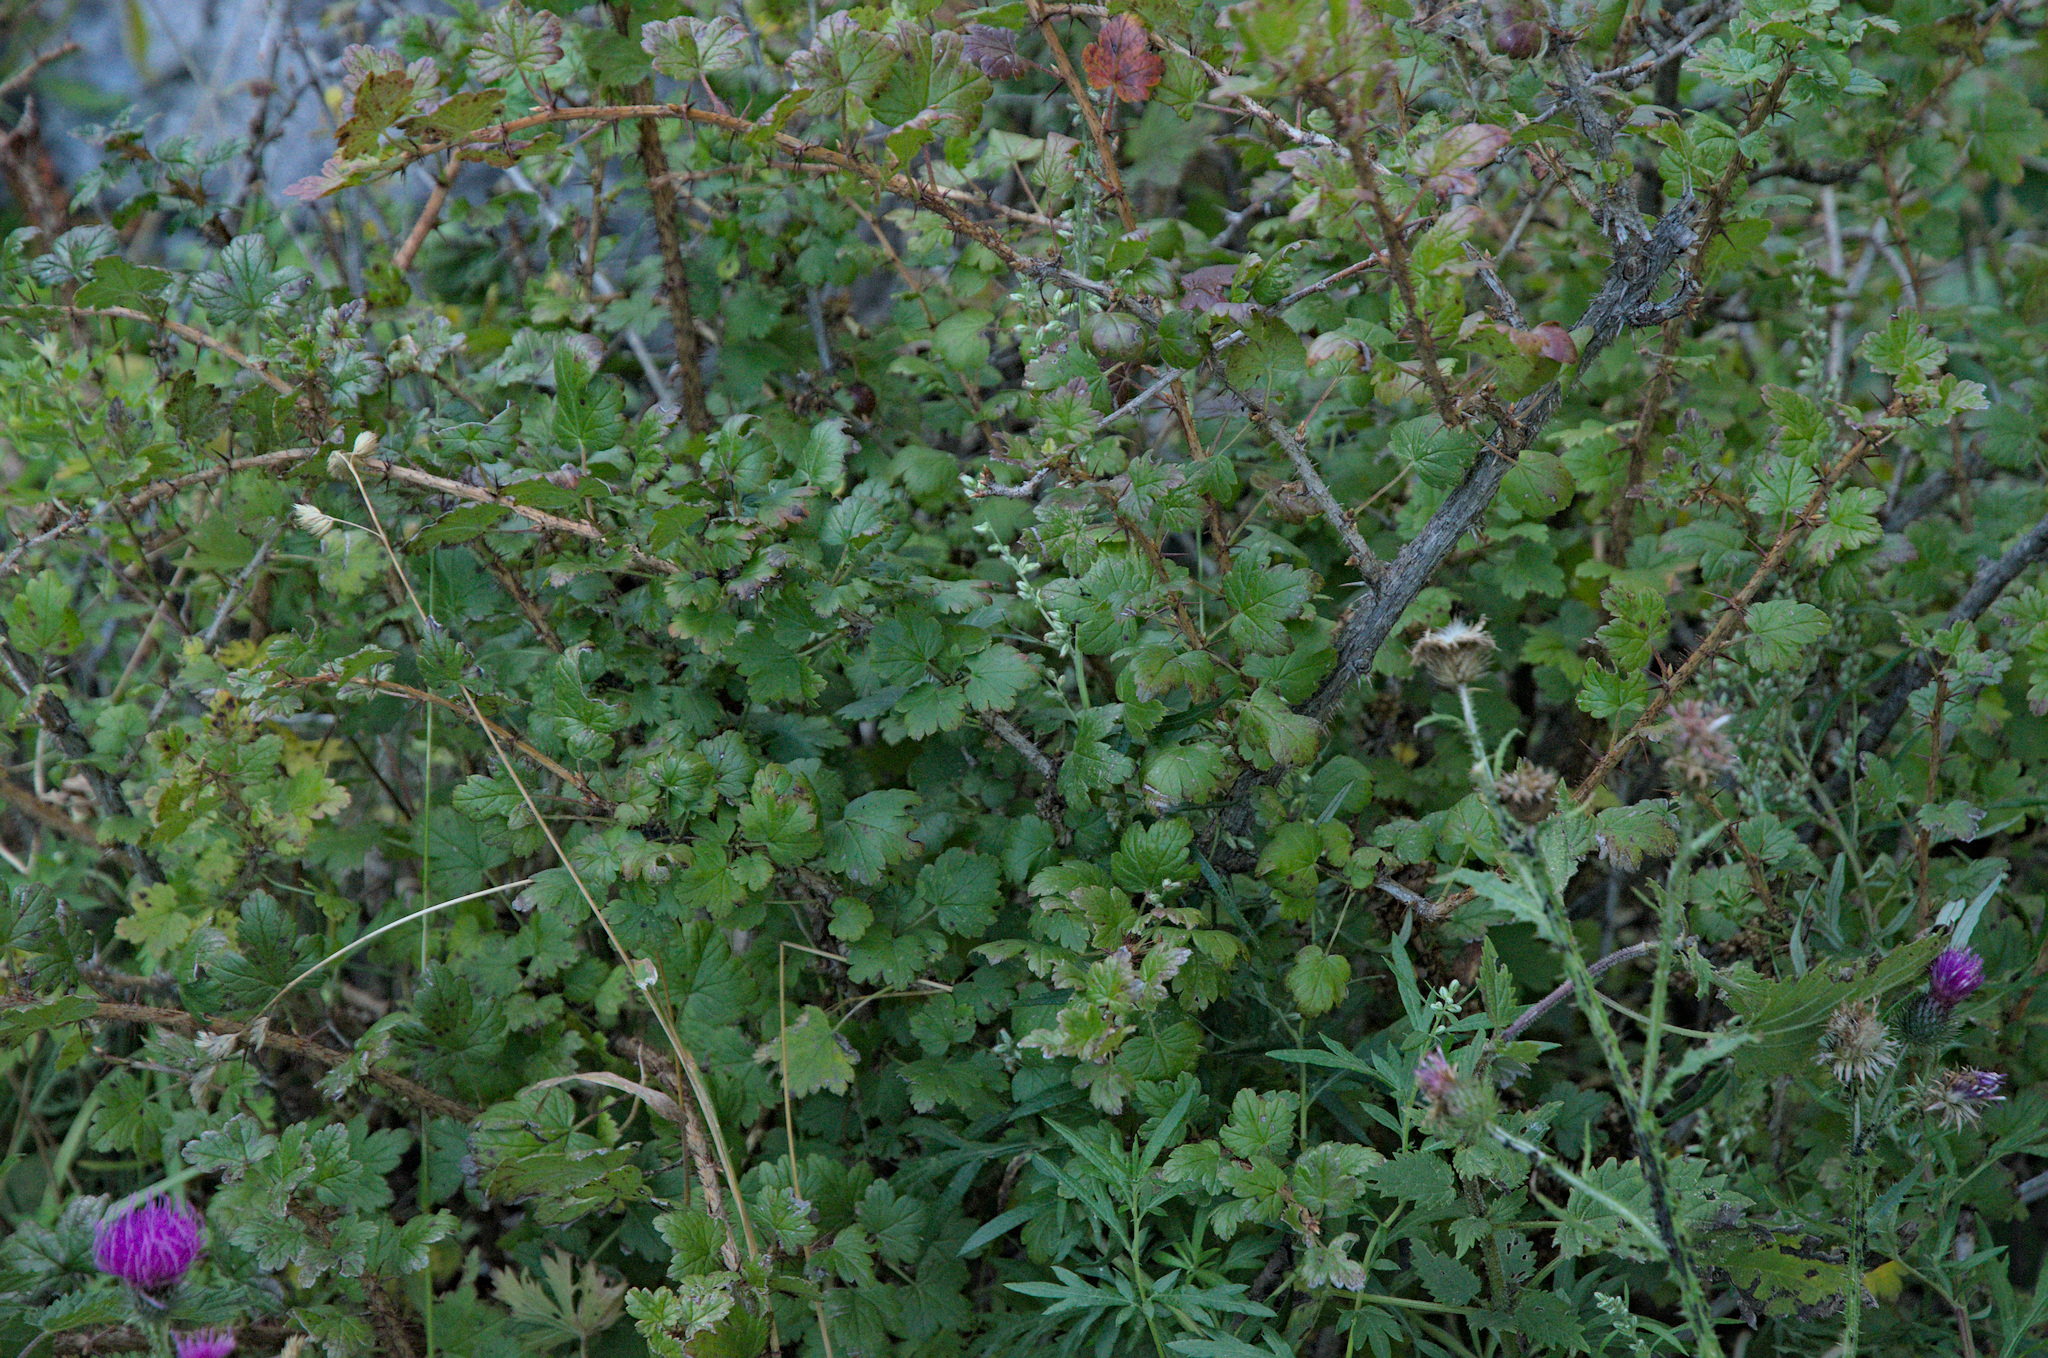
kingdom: Plantae
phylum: Tracheophyta
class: Magnoliopsida
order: Saxifragales
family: Grossulariaceae
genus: Ribes
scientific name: Ribes aciculare
